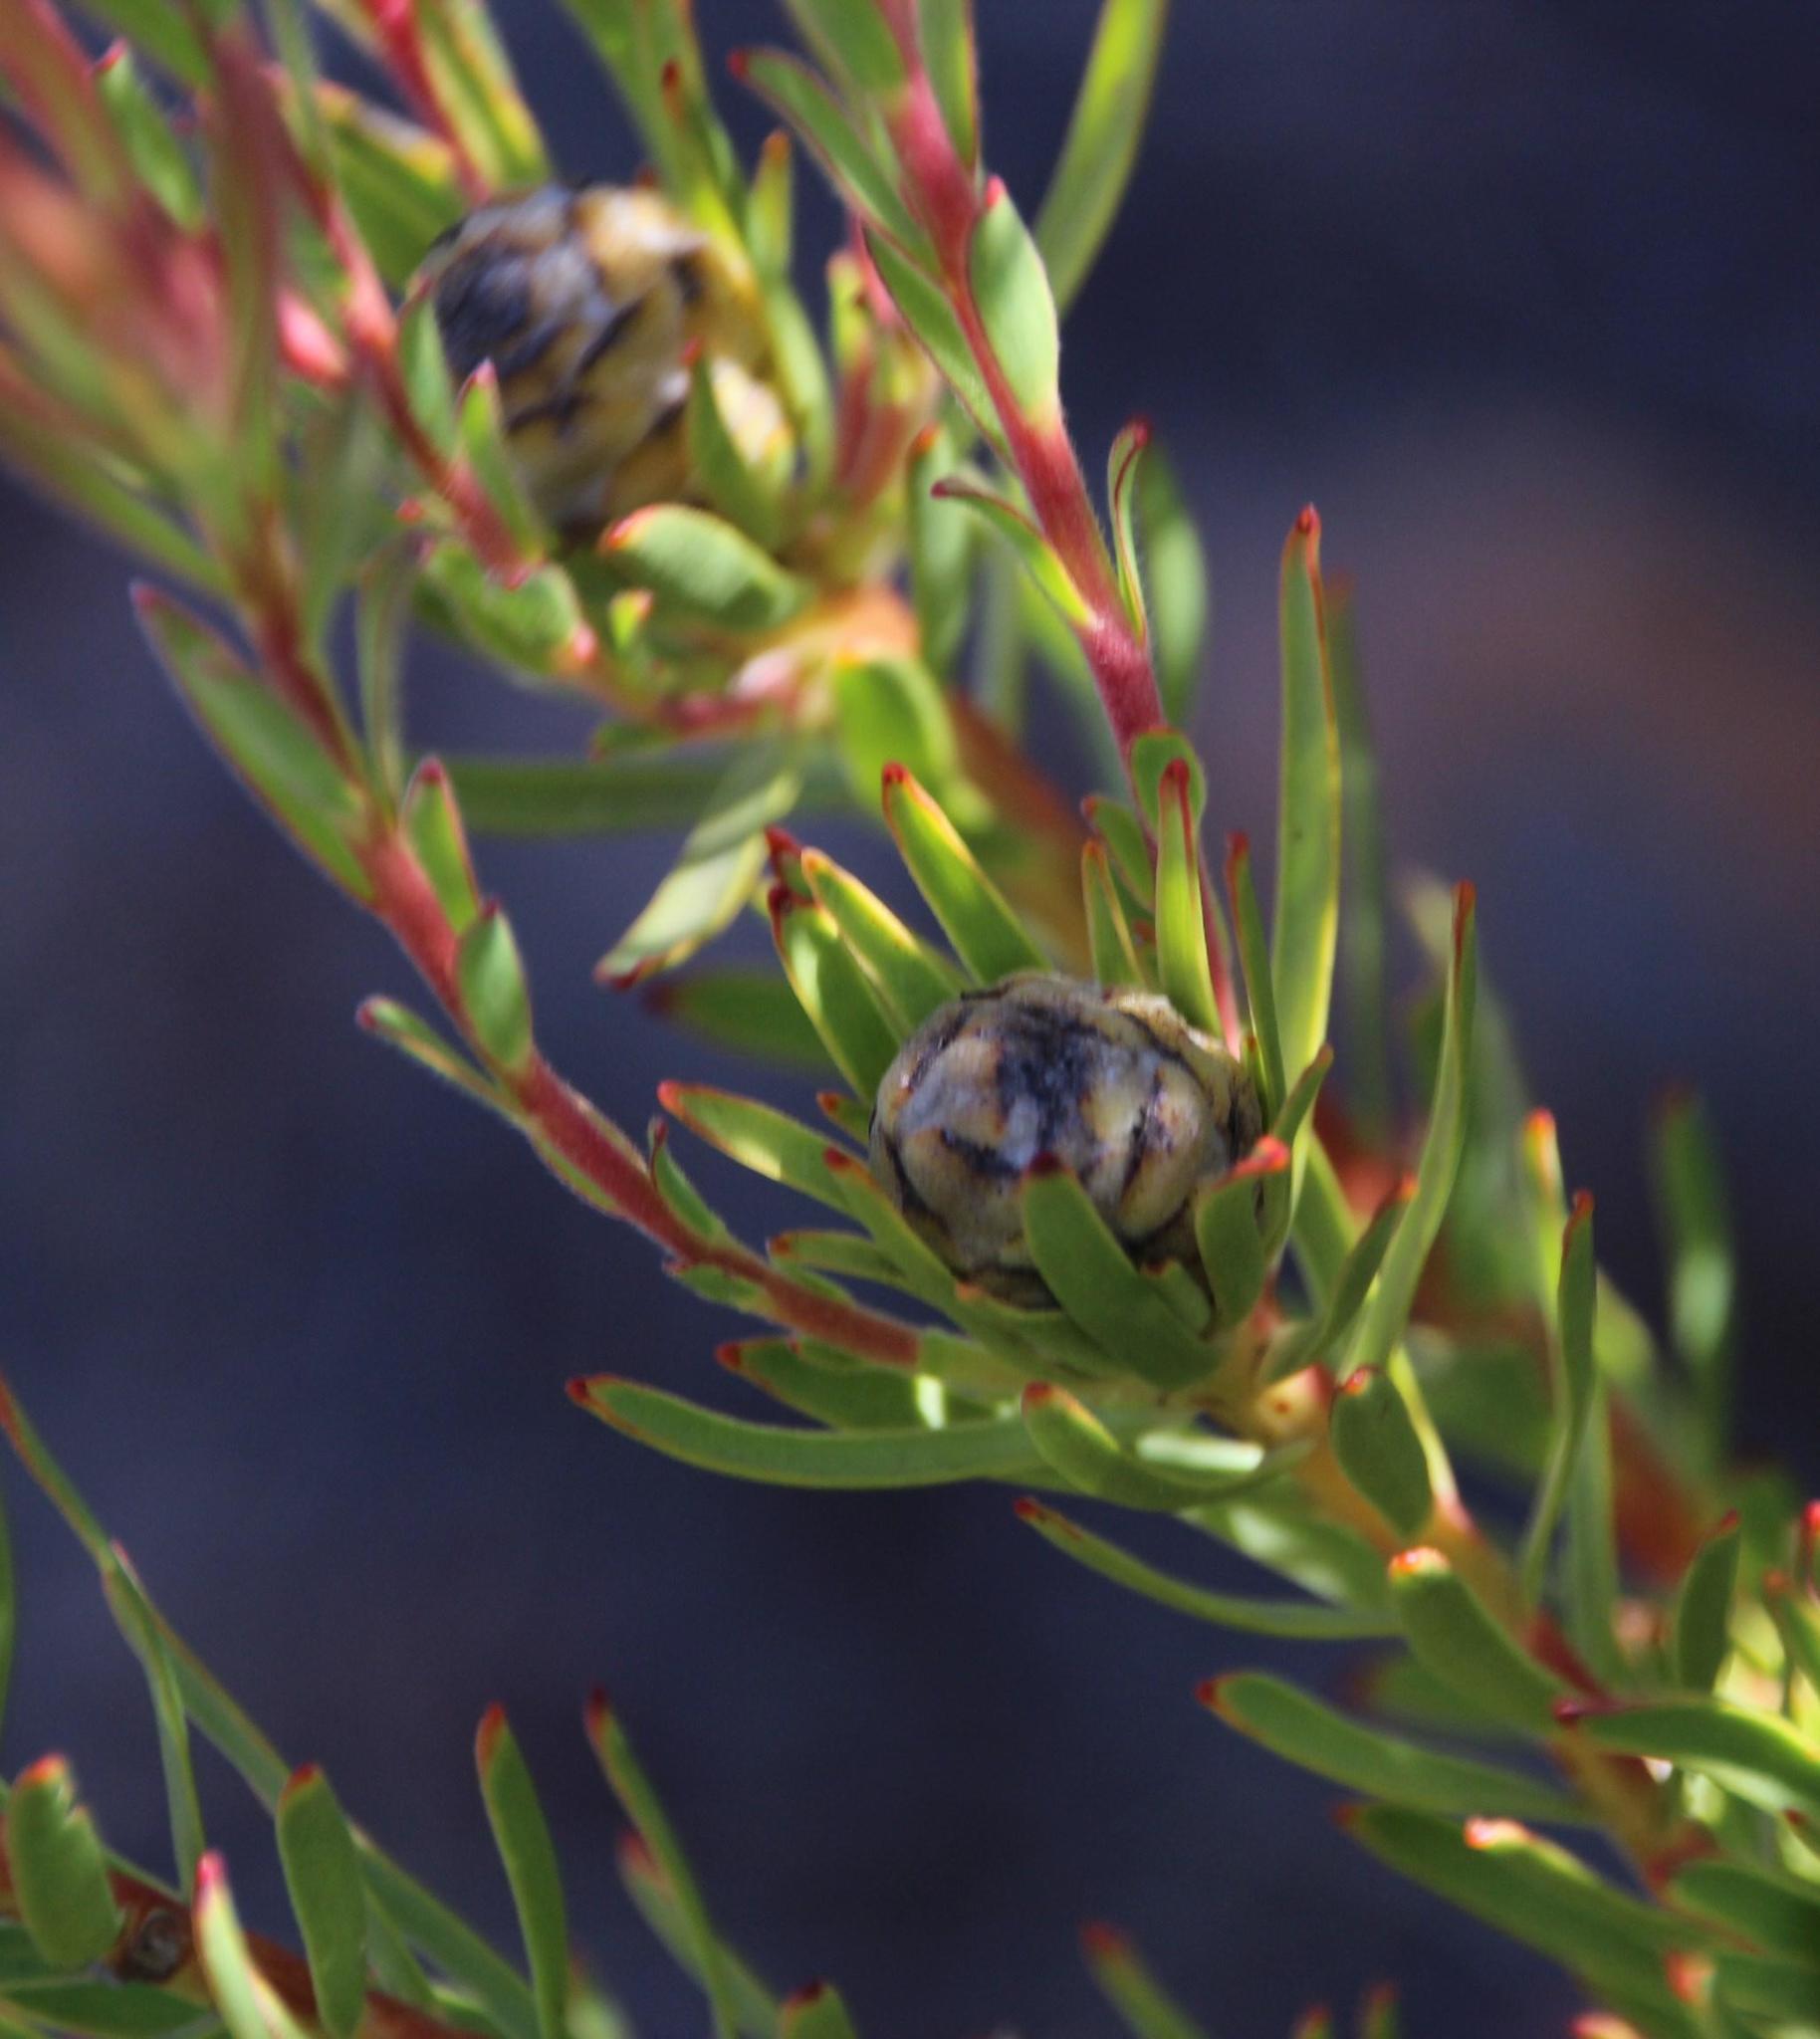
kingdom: Plantae
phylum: Tracheophyta
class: Magnoliopsida
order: Proteales
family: Proteaceae
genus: Leucadendron
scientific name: Leucadendron lanigerum
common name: Shale conebush
